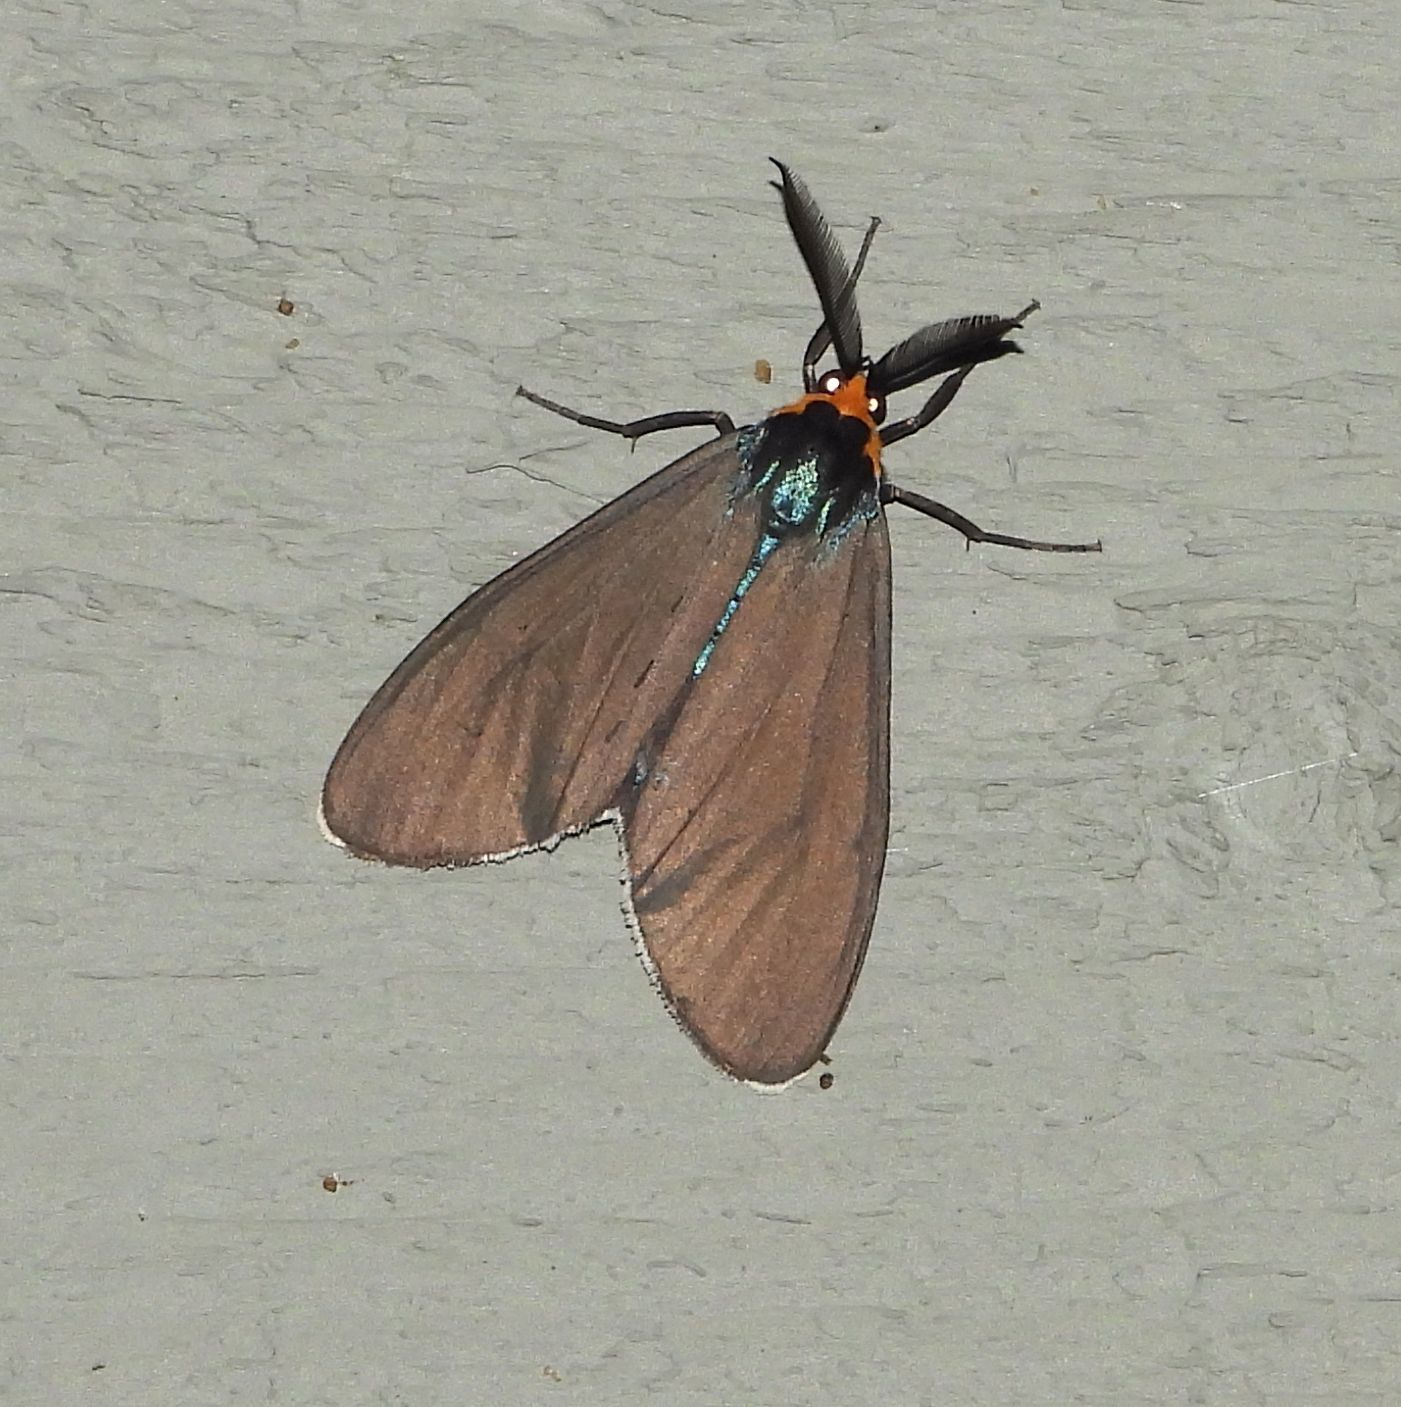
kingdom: Animalia
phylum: Arthropoda
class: Insecta
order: Lepidoptera
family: Erebidae
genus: Ctenucha
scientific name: Ctenucha virginica
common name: Virginia ctenucha moth
